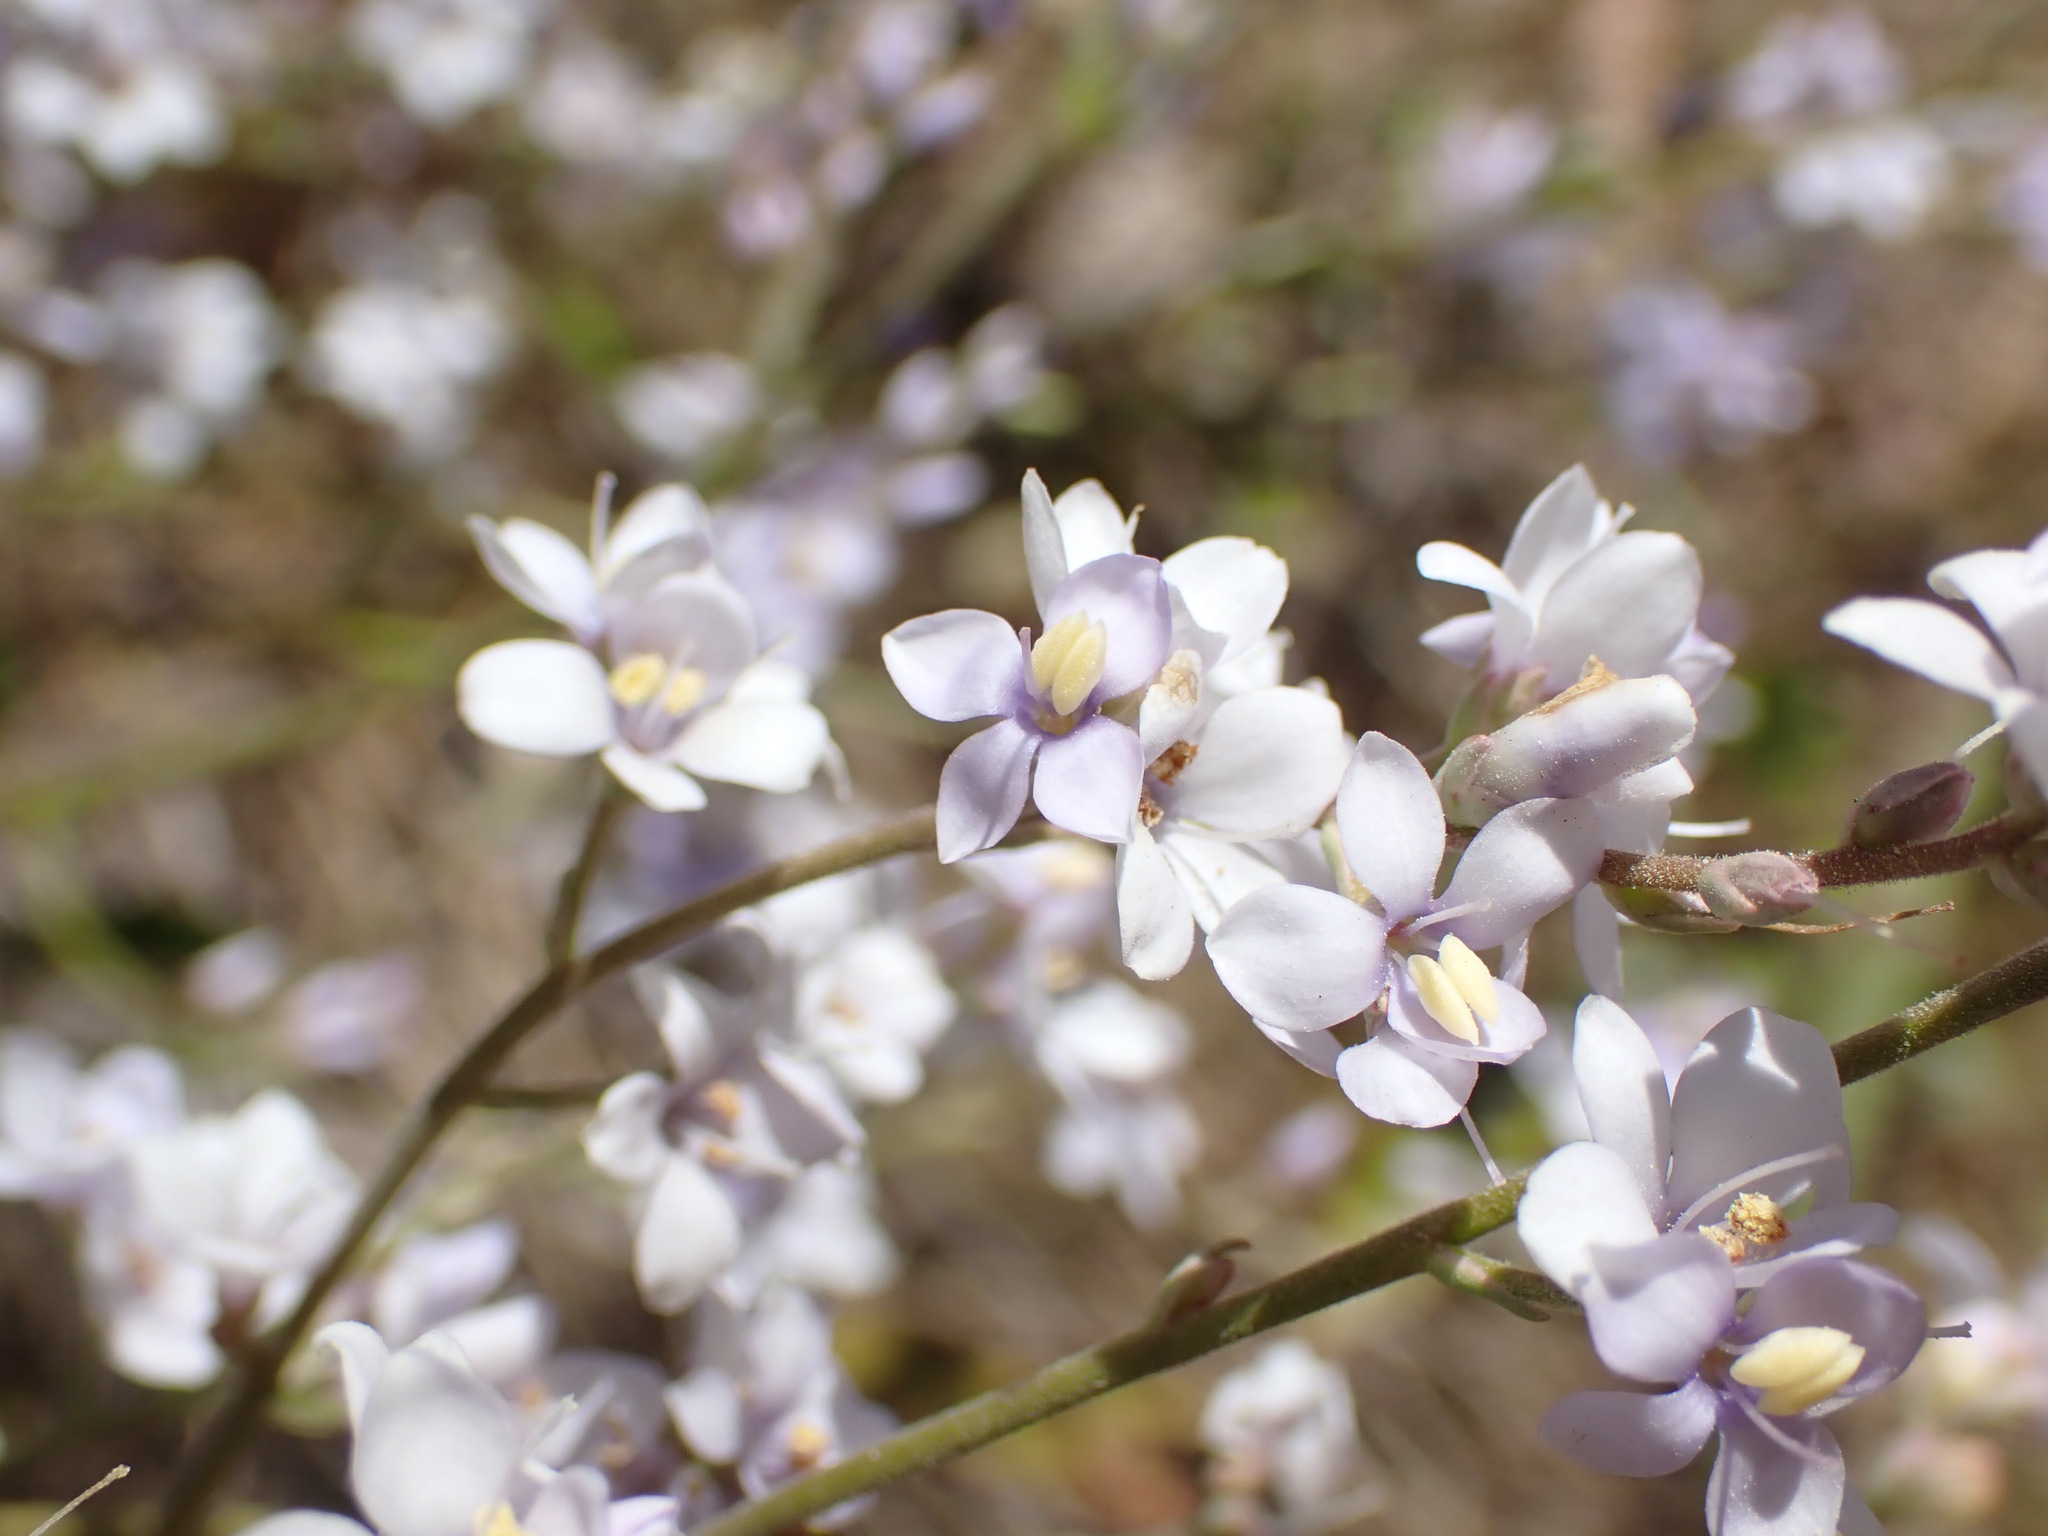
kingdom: Plantae
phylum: Tracheophyta
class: Magnoliopsida
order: Lamiales
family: Plantaginaceae
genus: Veronica
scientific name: Veronica hulkeana
